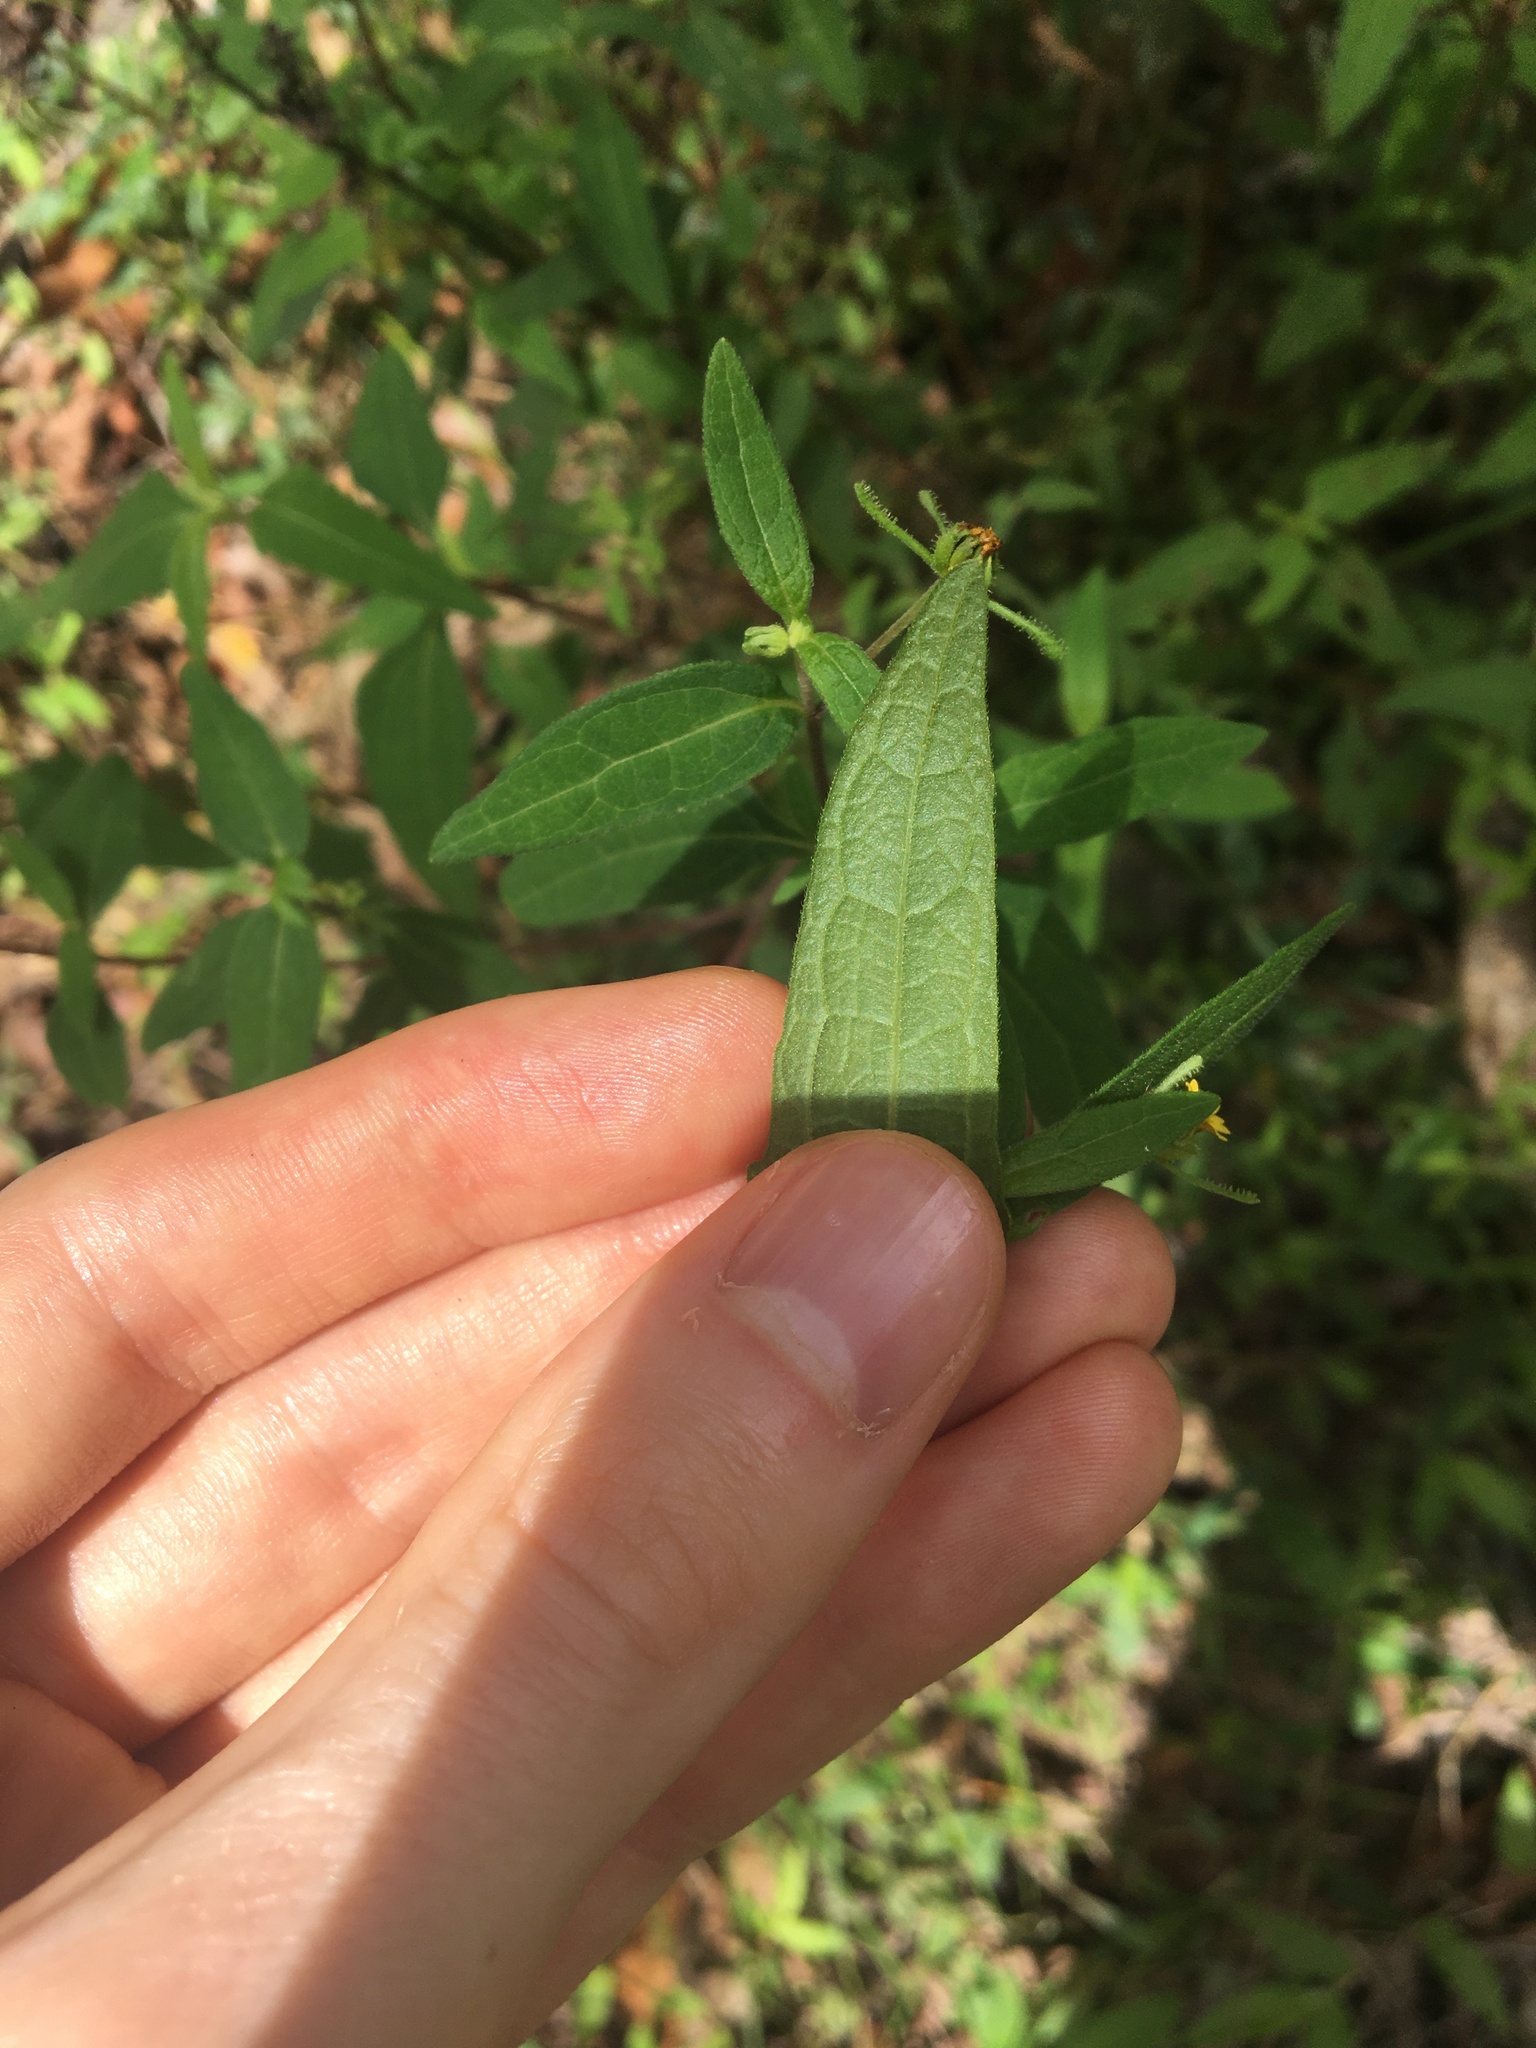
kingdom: Plantae
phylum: Tracheophyta
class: Magnoliopsida
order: Asterales
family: Asteraceae
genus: Sigesbeckia
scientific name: Sigesbeckia orientalis
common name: Eastern st paul's-wort
